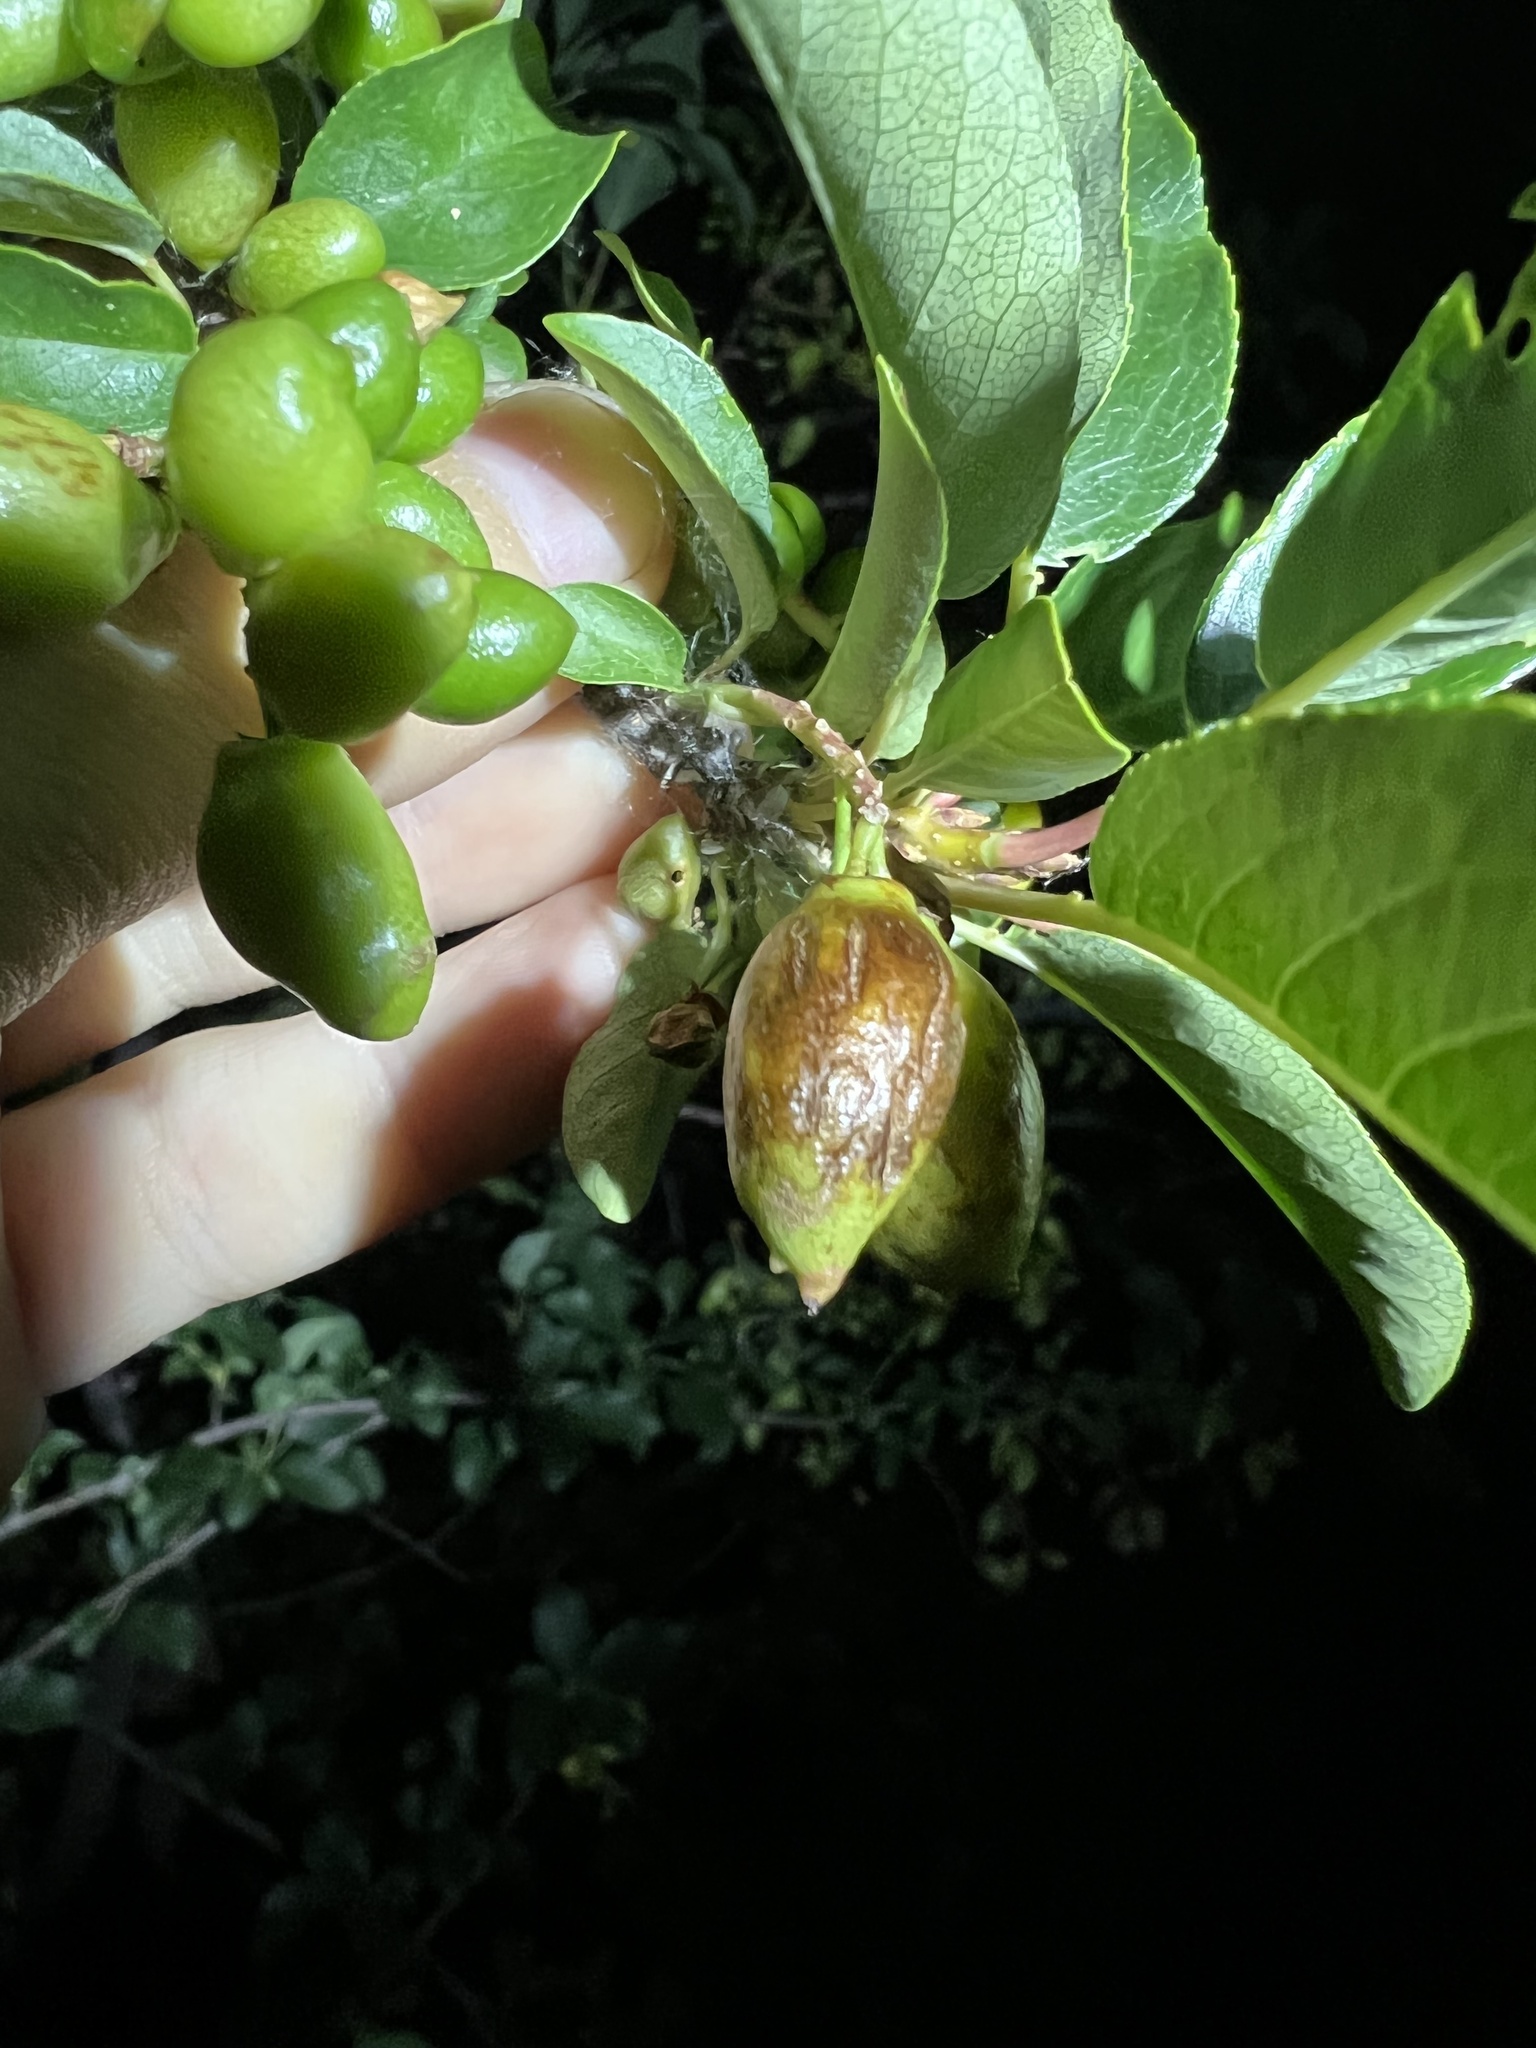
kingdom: Animalia
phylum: Arthropoda
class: Insecta
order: Diptera
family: Cecidomyiidae
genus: Contarinia
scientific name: Contarinia virginianiae
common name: Chokecherry midge
